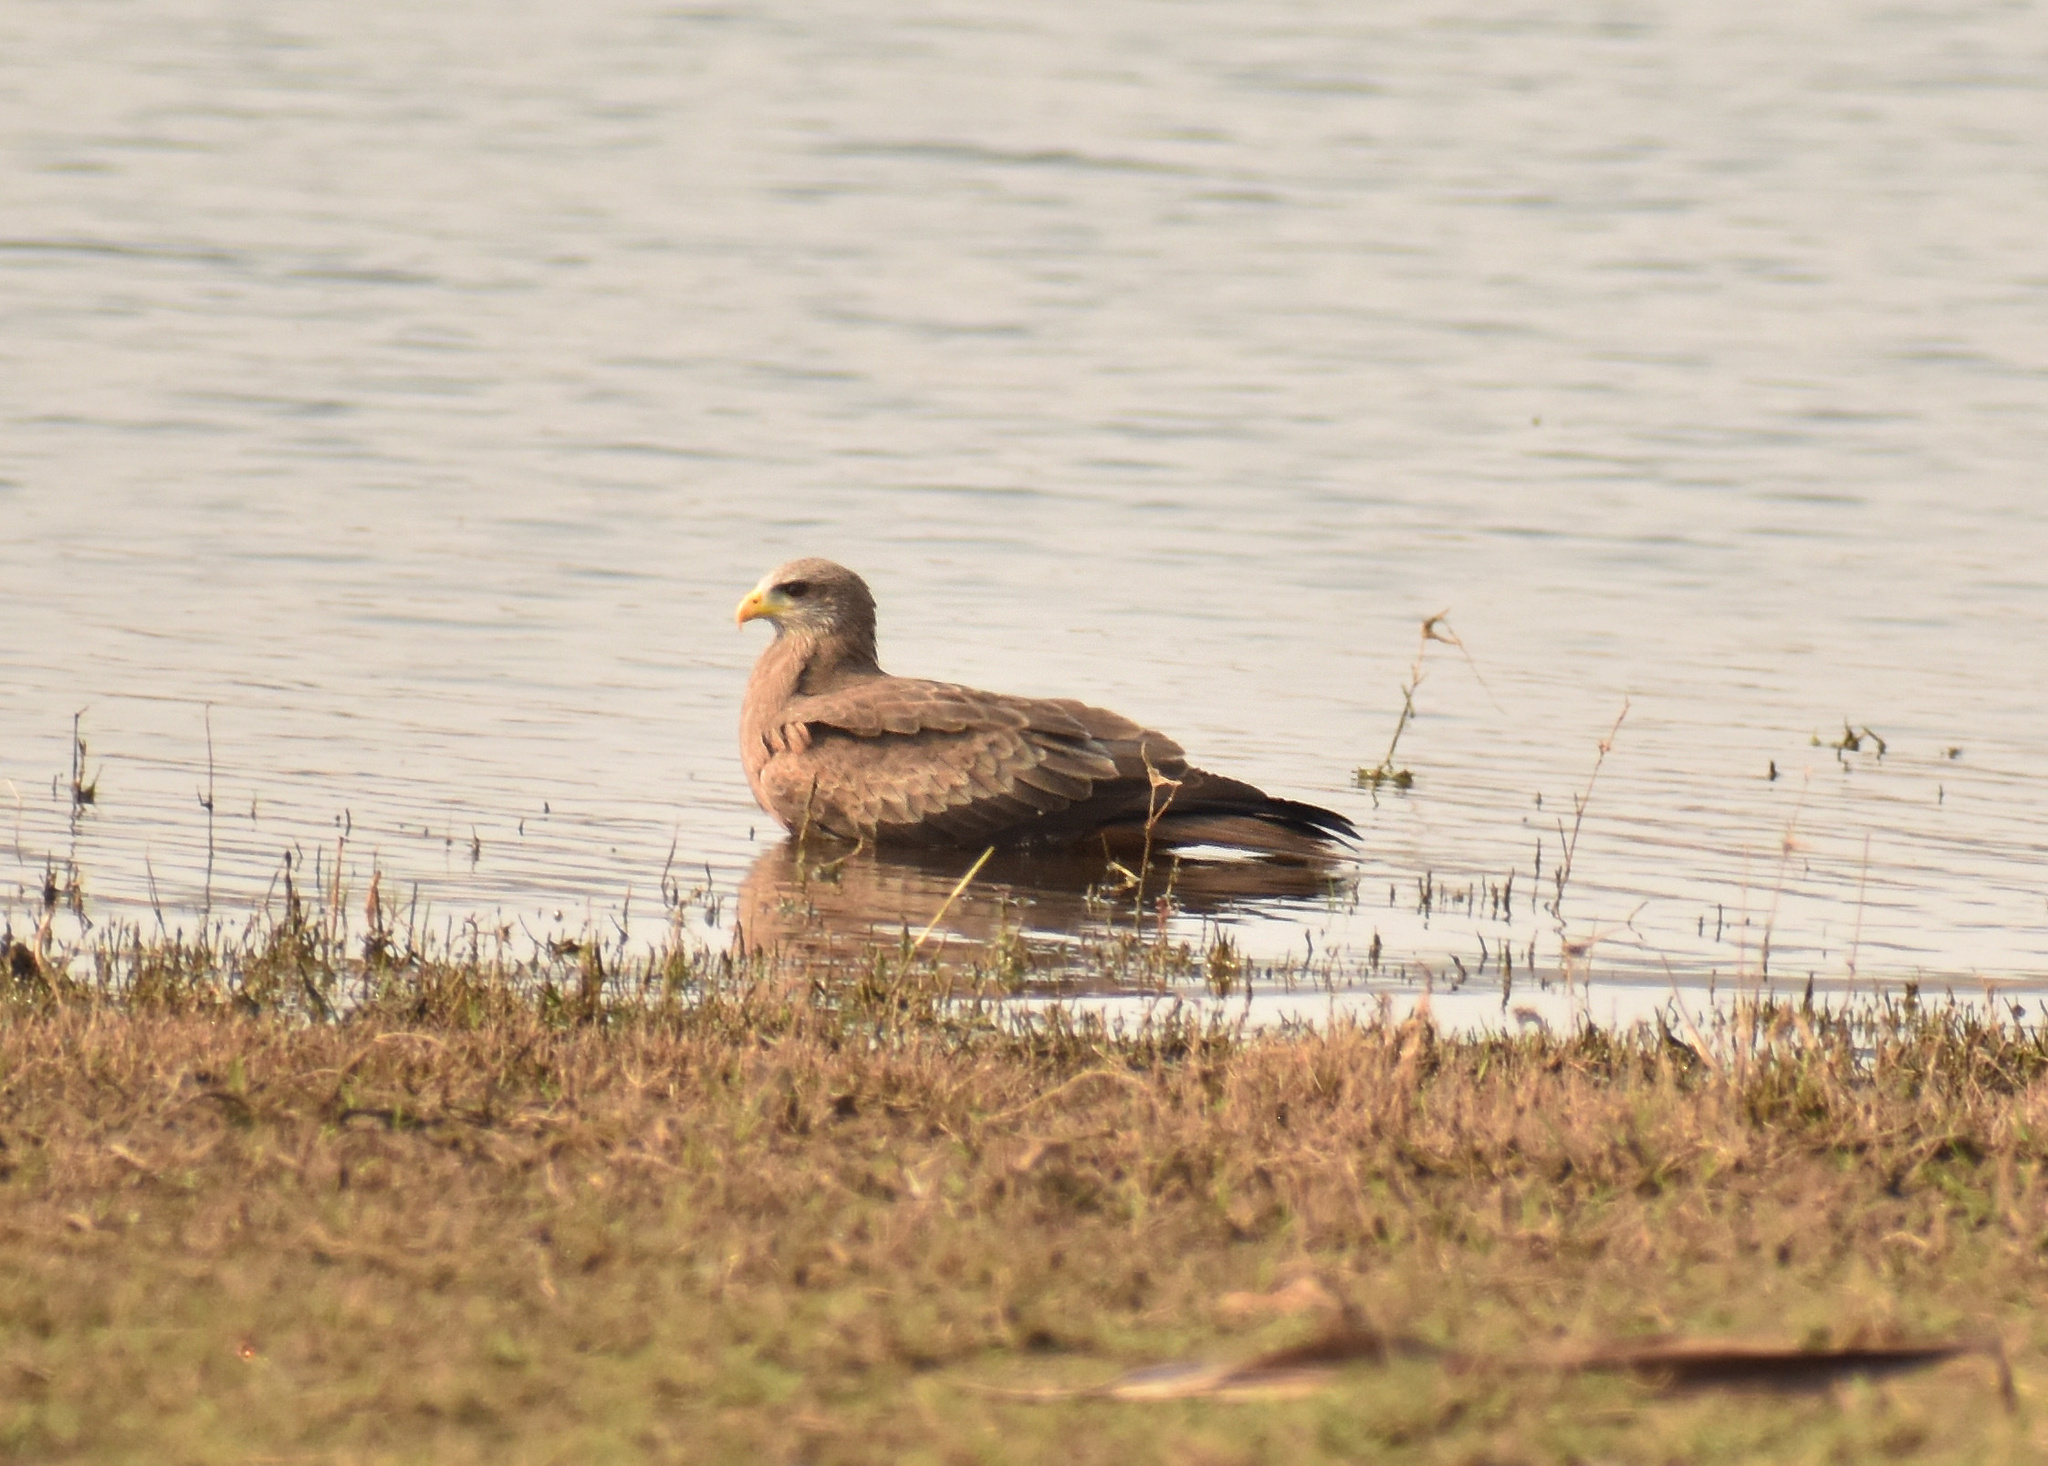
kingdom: Animalia
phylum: Chordata
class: Aves
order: Accipitriformes
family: Accipitridae
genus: Milvus
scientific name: Milvus migrans
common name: Black kite
